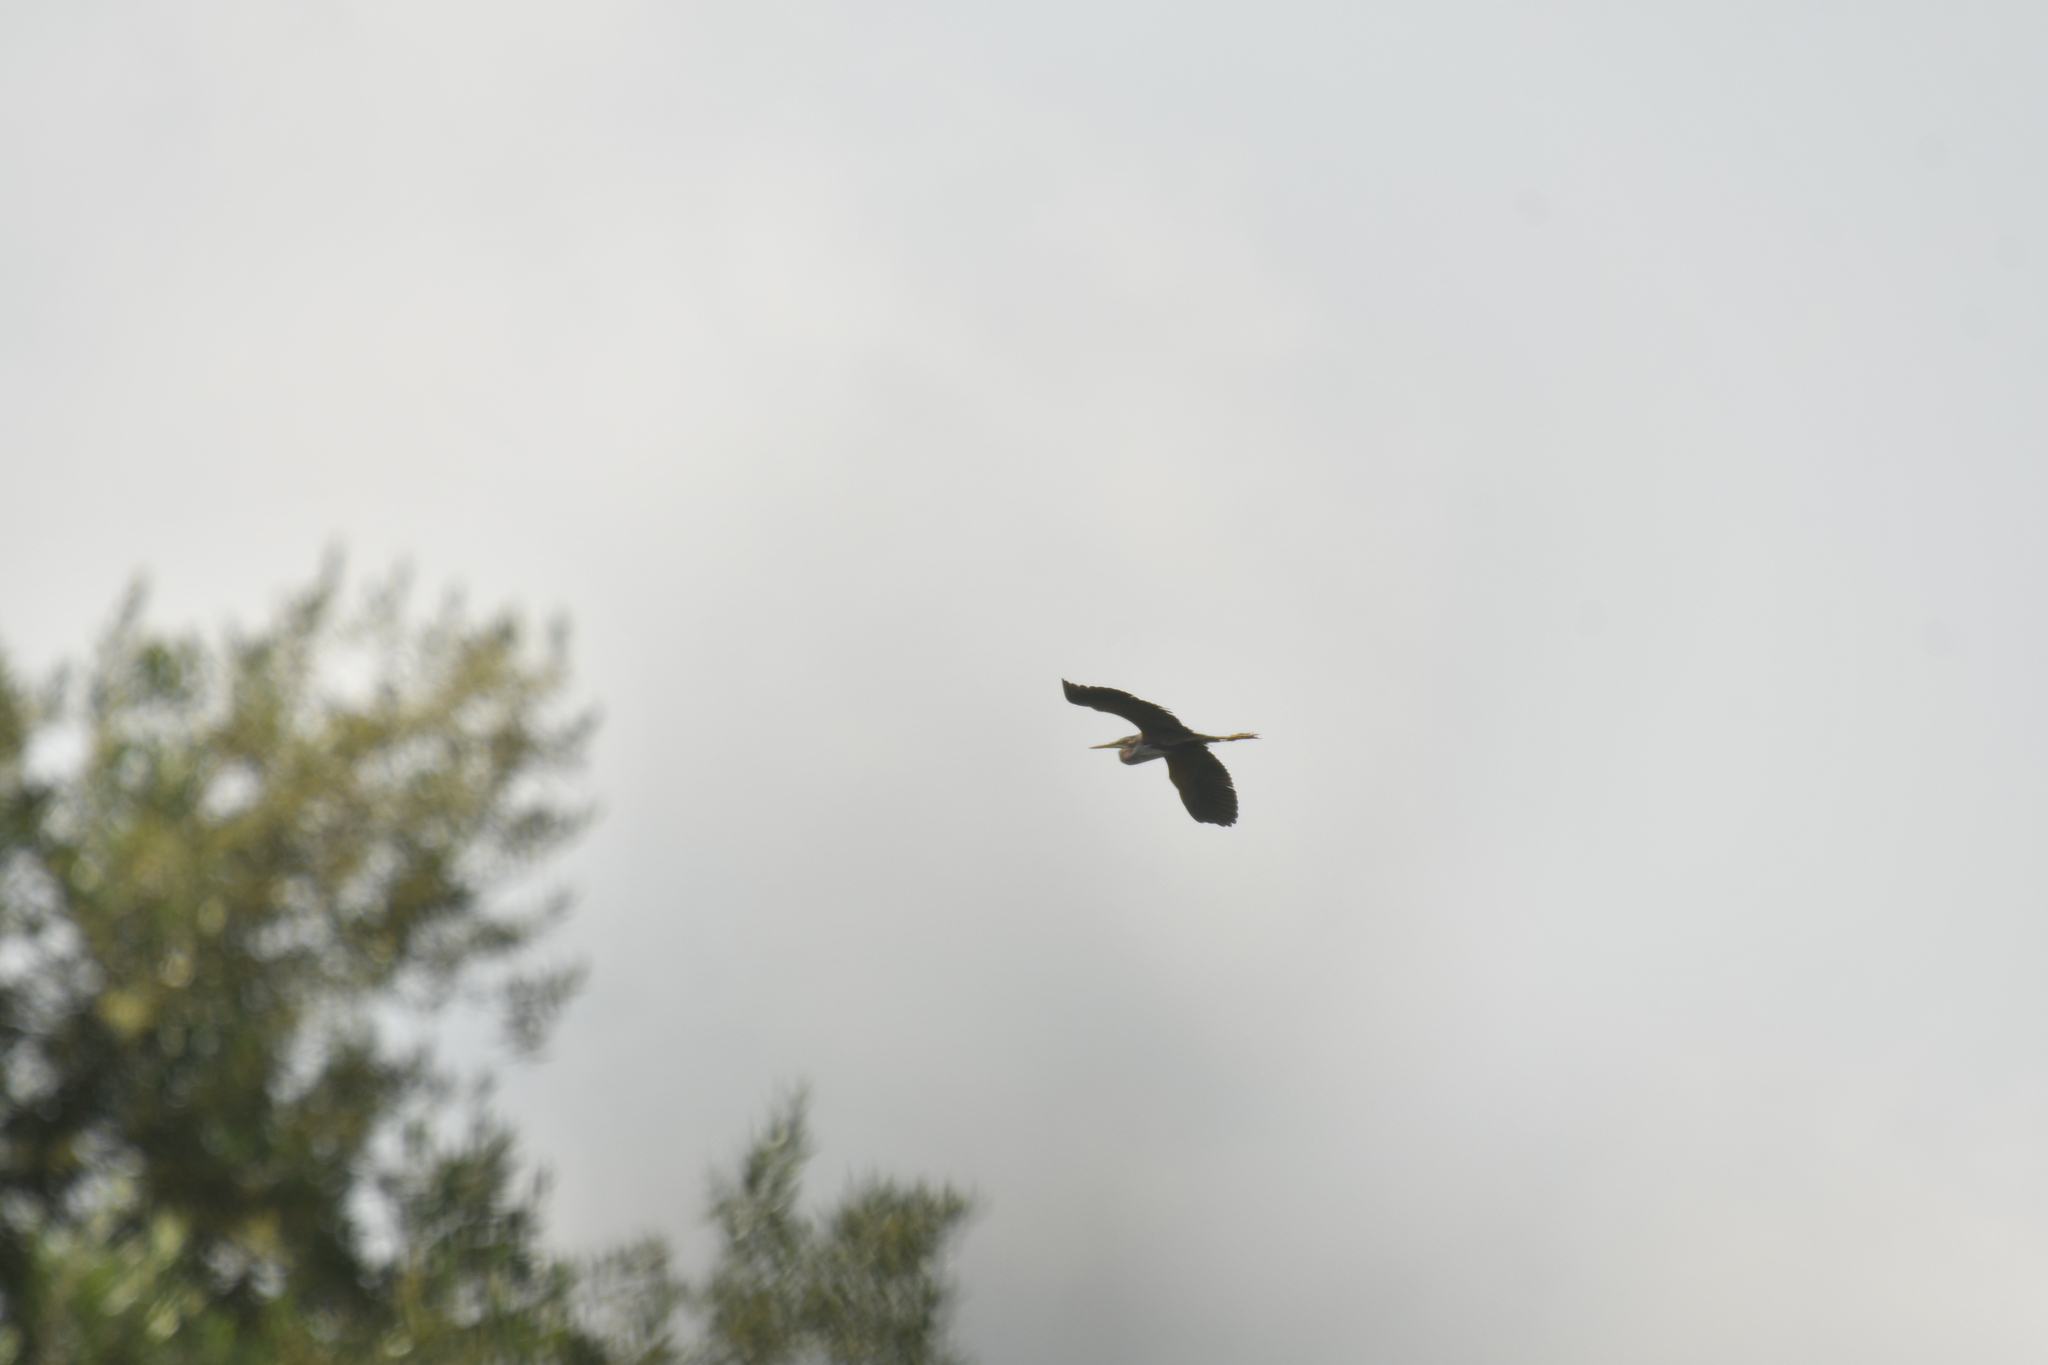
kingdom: Animalia
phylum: Chordata
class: Aves
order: Pelecaniformes
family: Ardeidae
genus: Ardea
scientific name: Ardea purpurea
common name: Purple heron
